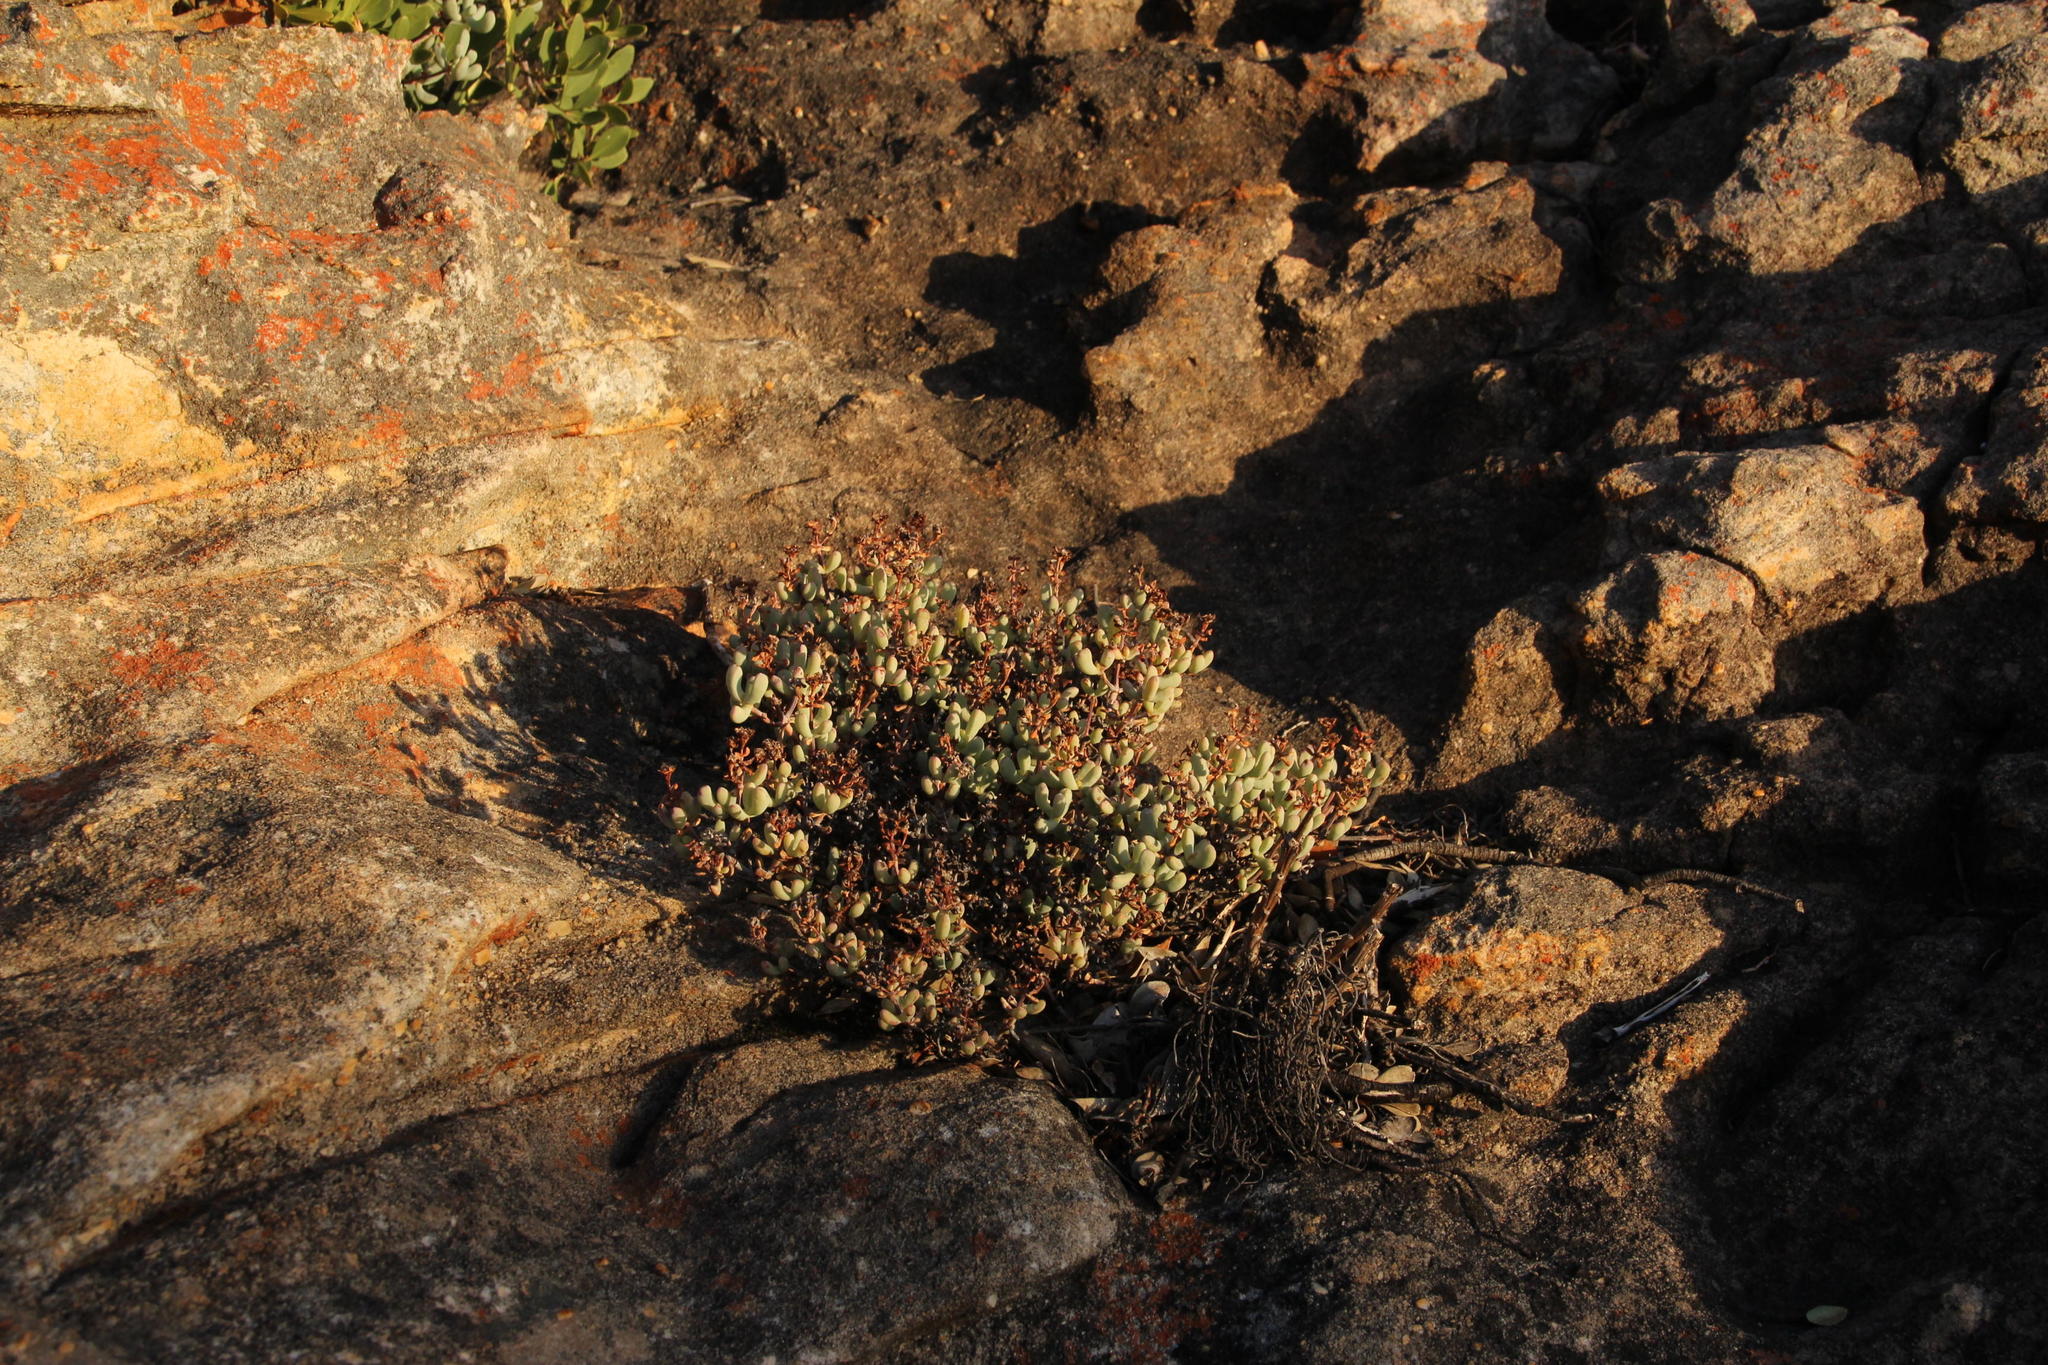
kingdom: Plantae
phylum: Tracheophyta
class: Magnoliopsida
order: Caryophyllales
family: Aizoaceae
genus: Oscularia
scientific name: Oscularia cedarbergensis
